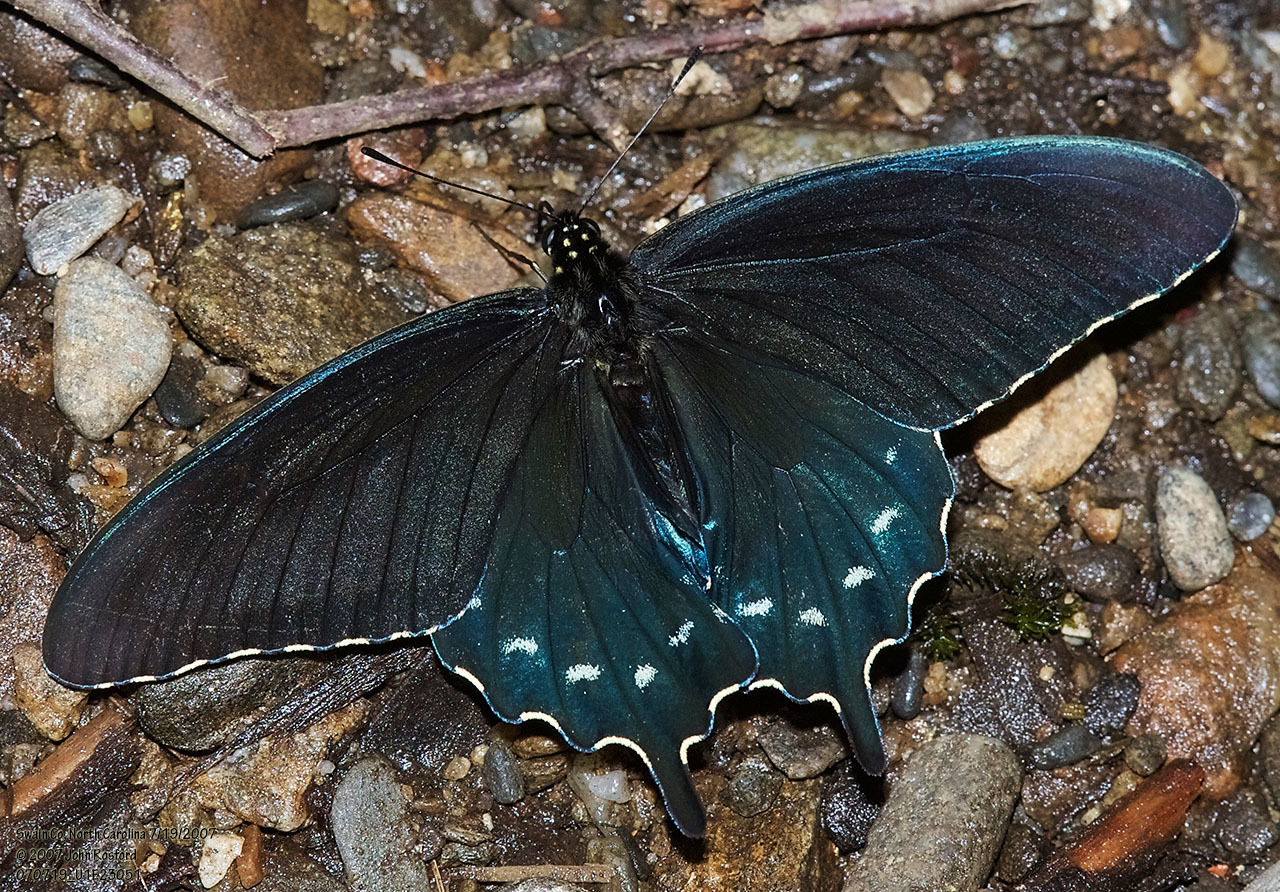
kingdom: Animalia
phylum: Arthropoda
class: Insecta
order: Lepidoptera
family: Papilionidae
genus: Battus
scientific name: Battus philenor
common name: Pipevine swallowtail
